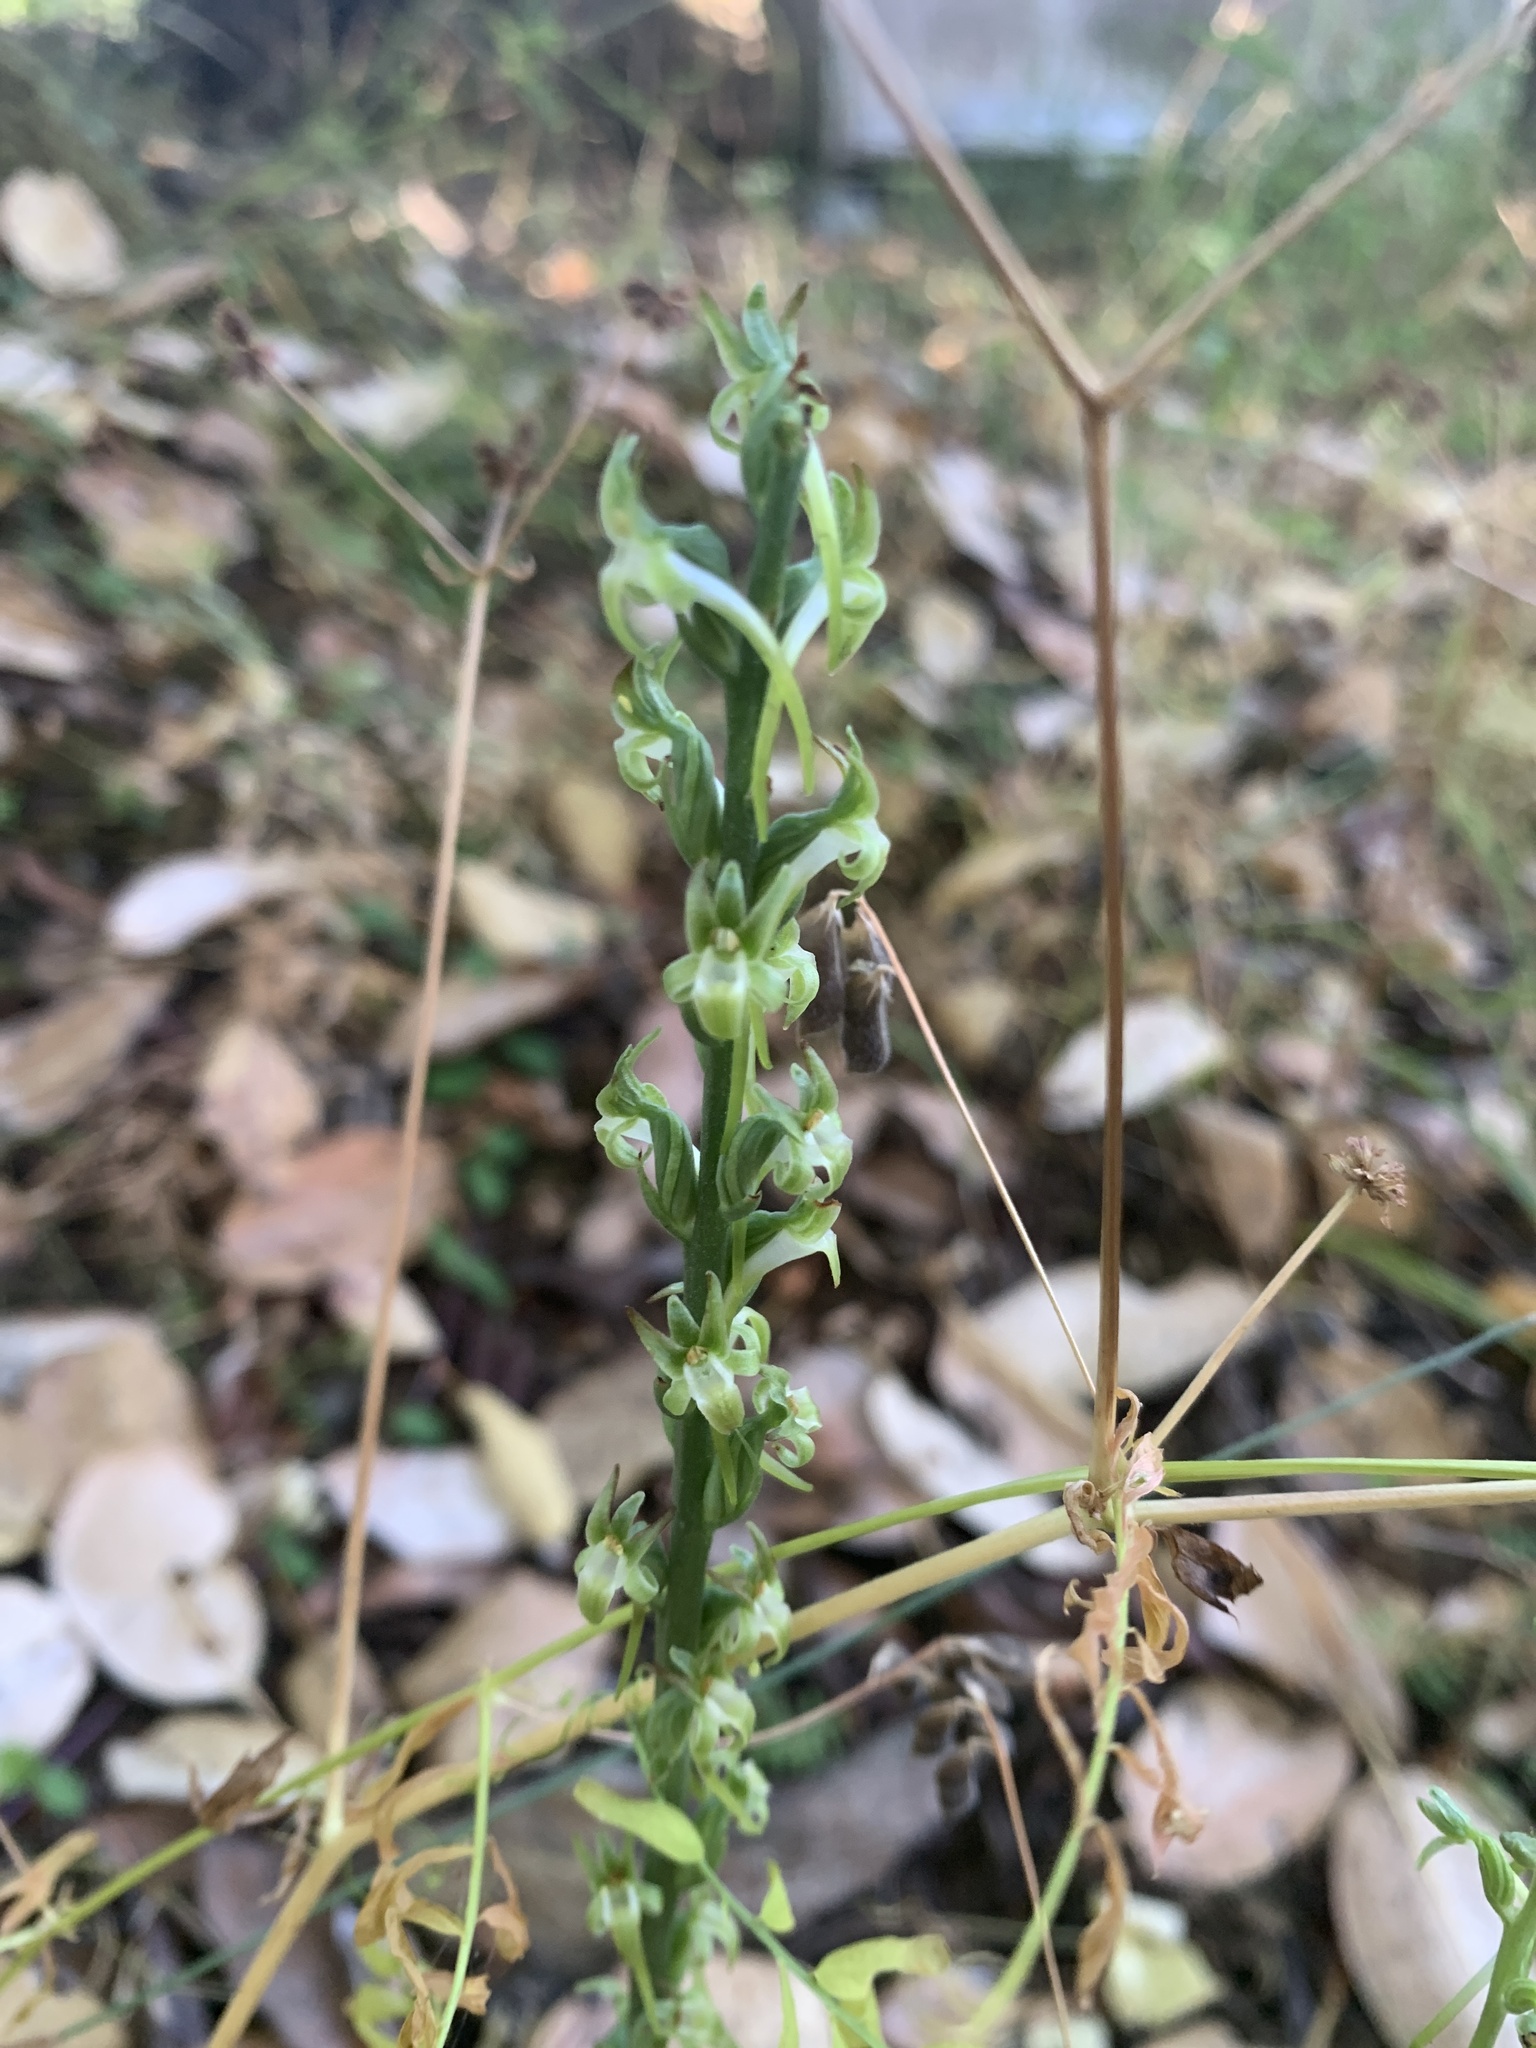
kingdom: Plantae
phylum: Tracheophyta
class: Liliopsida
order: Asparagales
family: Orchidaceae
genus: Platanthera
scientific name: Platanthera elongata
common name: Dense-flowered rein orchid
